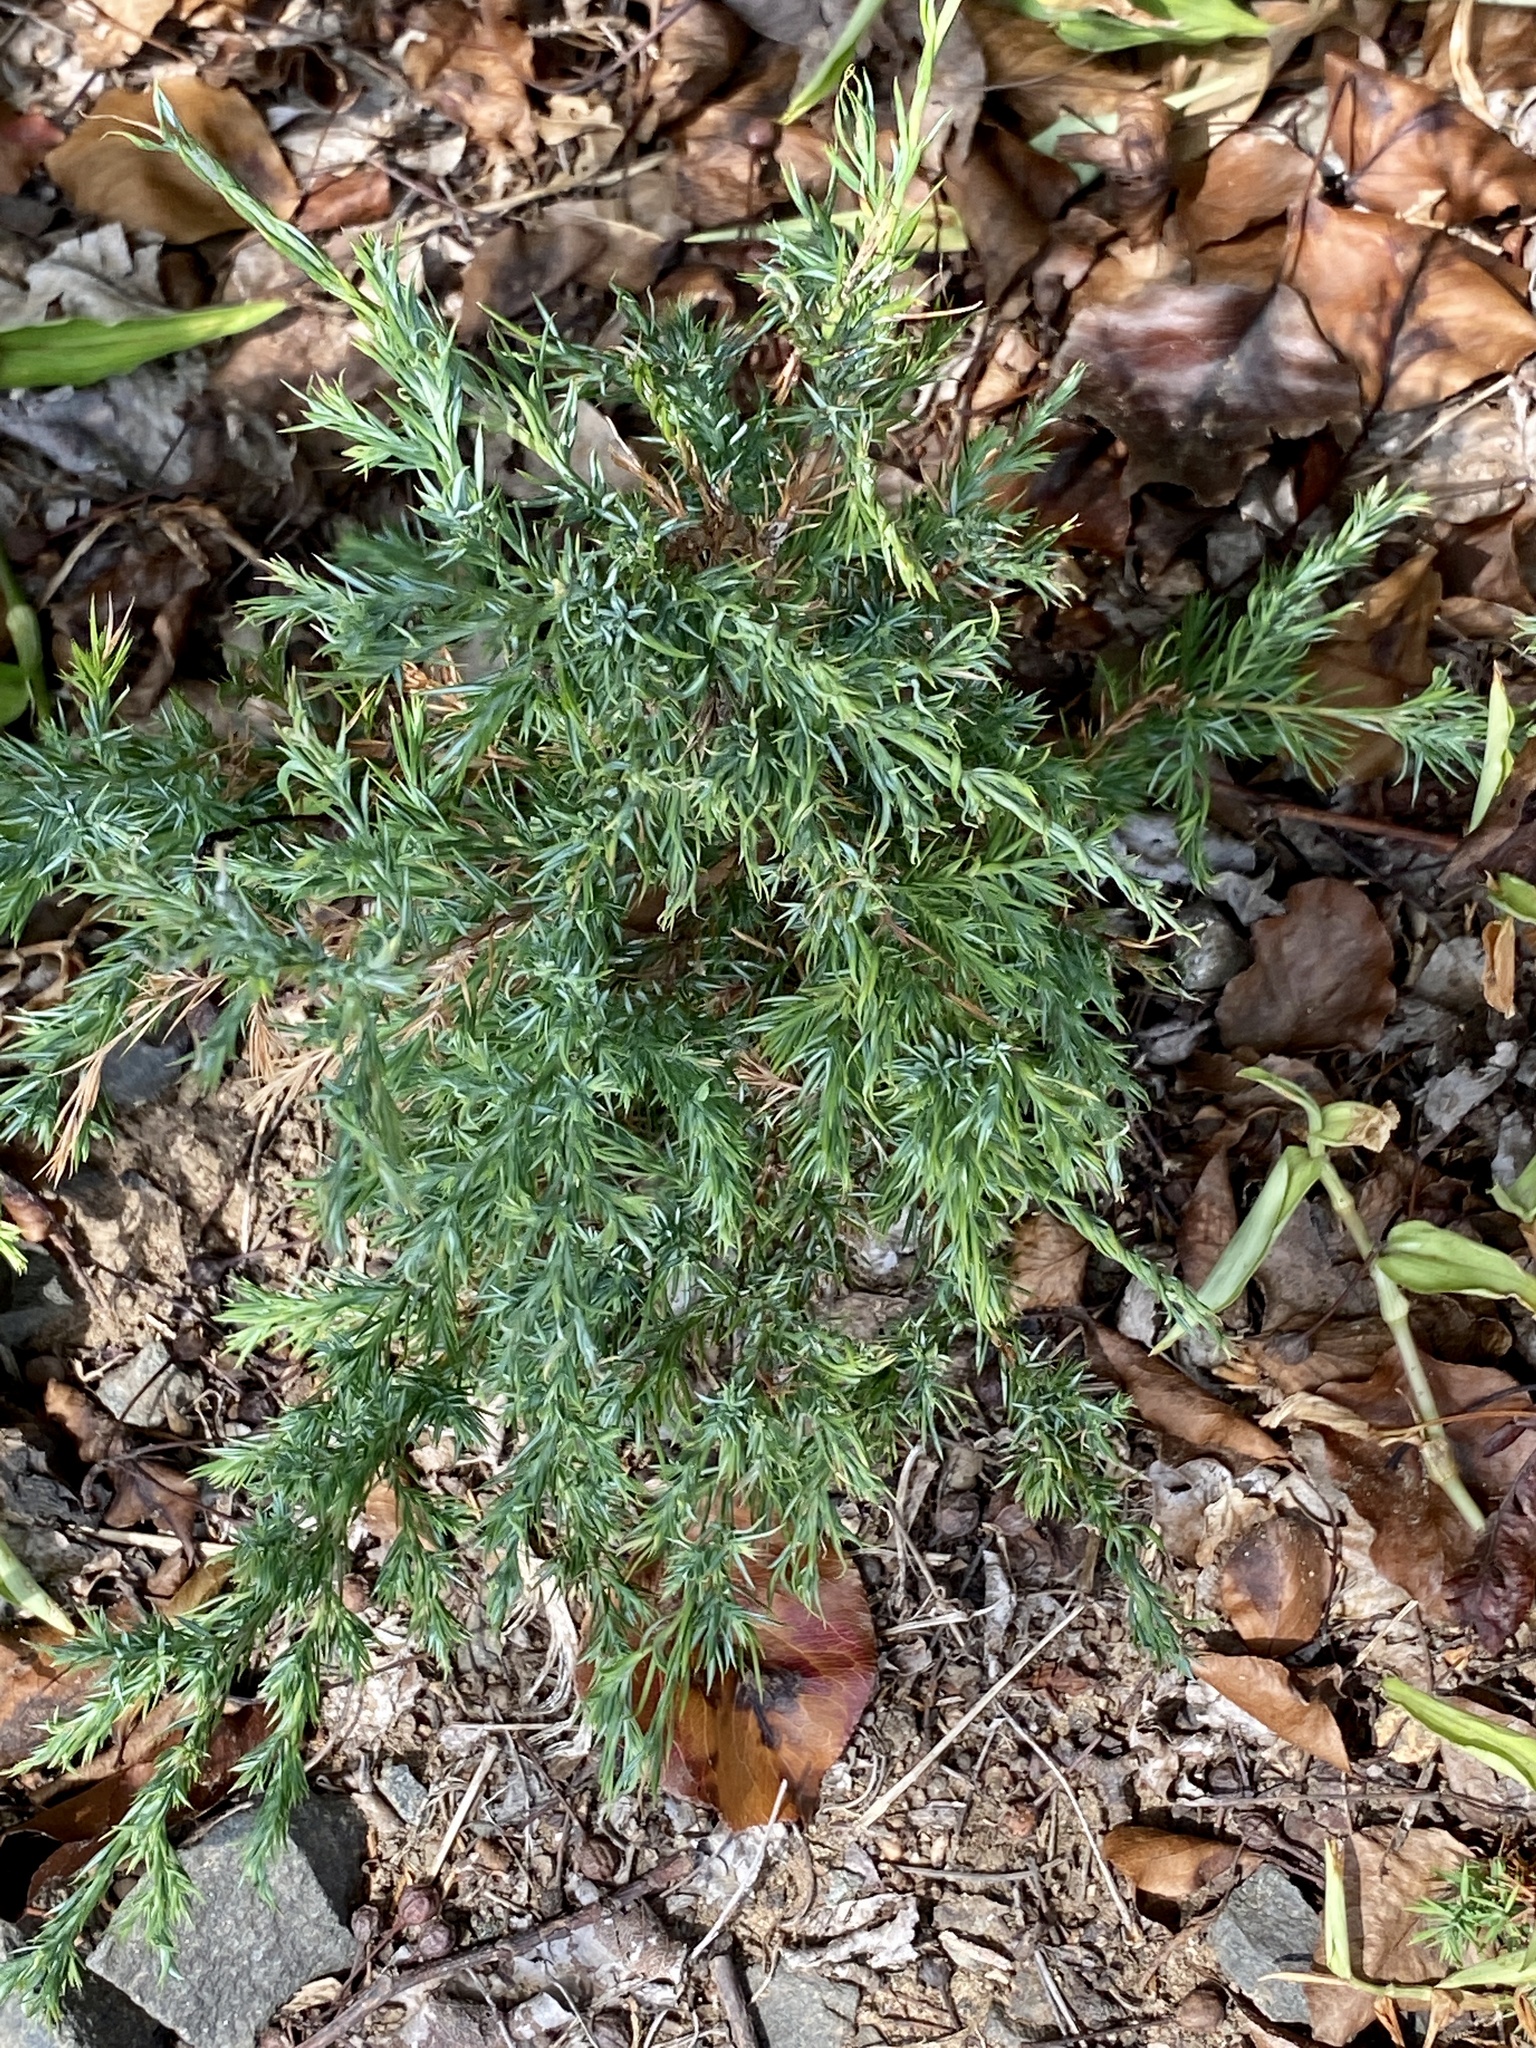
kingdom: Plantae
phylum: Tracheophyta
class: Pinopsida
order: Pinales
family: Cupressaceae
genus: Juniperus
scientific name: Juniperus virginiana
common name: Red juniper
